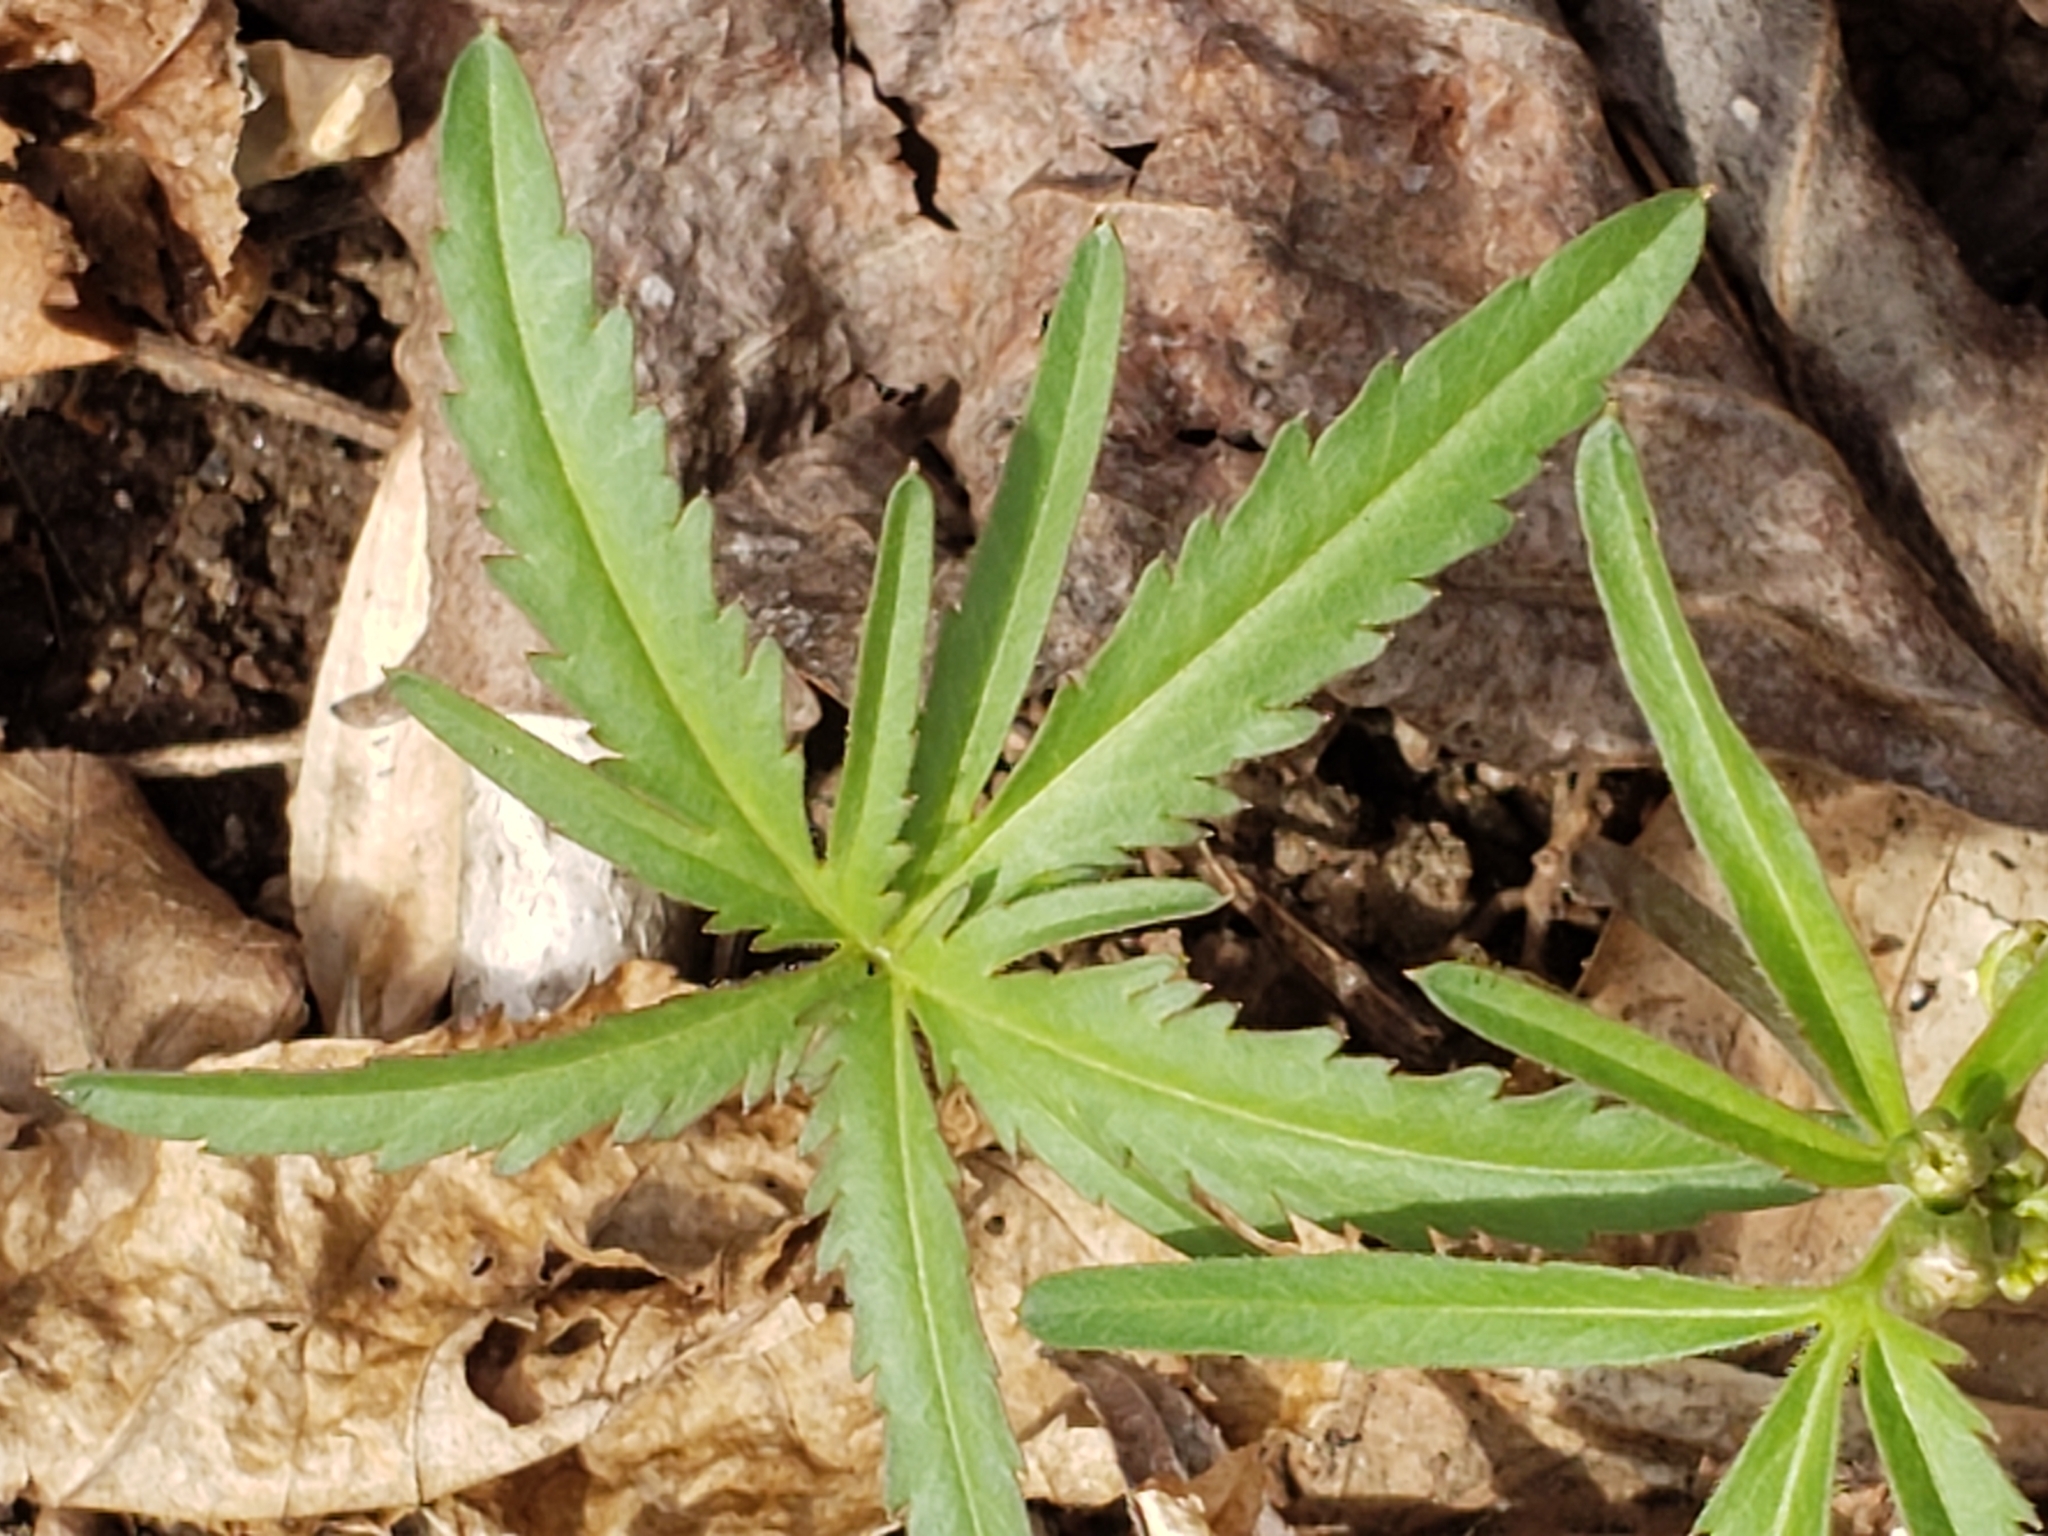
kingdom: Plantae
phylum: Tracheophyta
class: Magnoliopsida
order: Brassicales
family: Brassicaceae
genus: Cardamine
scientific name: Cardamine concatenata
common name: Cut-leaf toothcup
